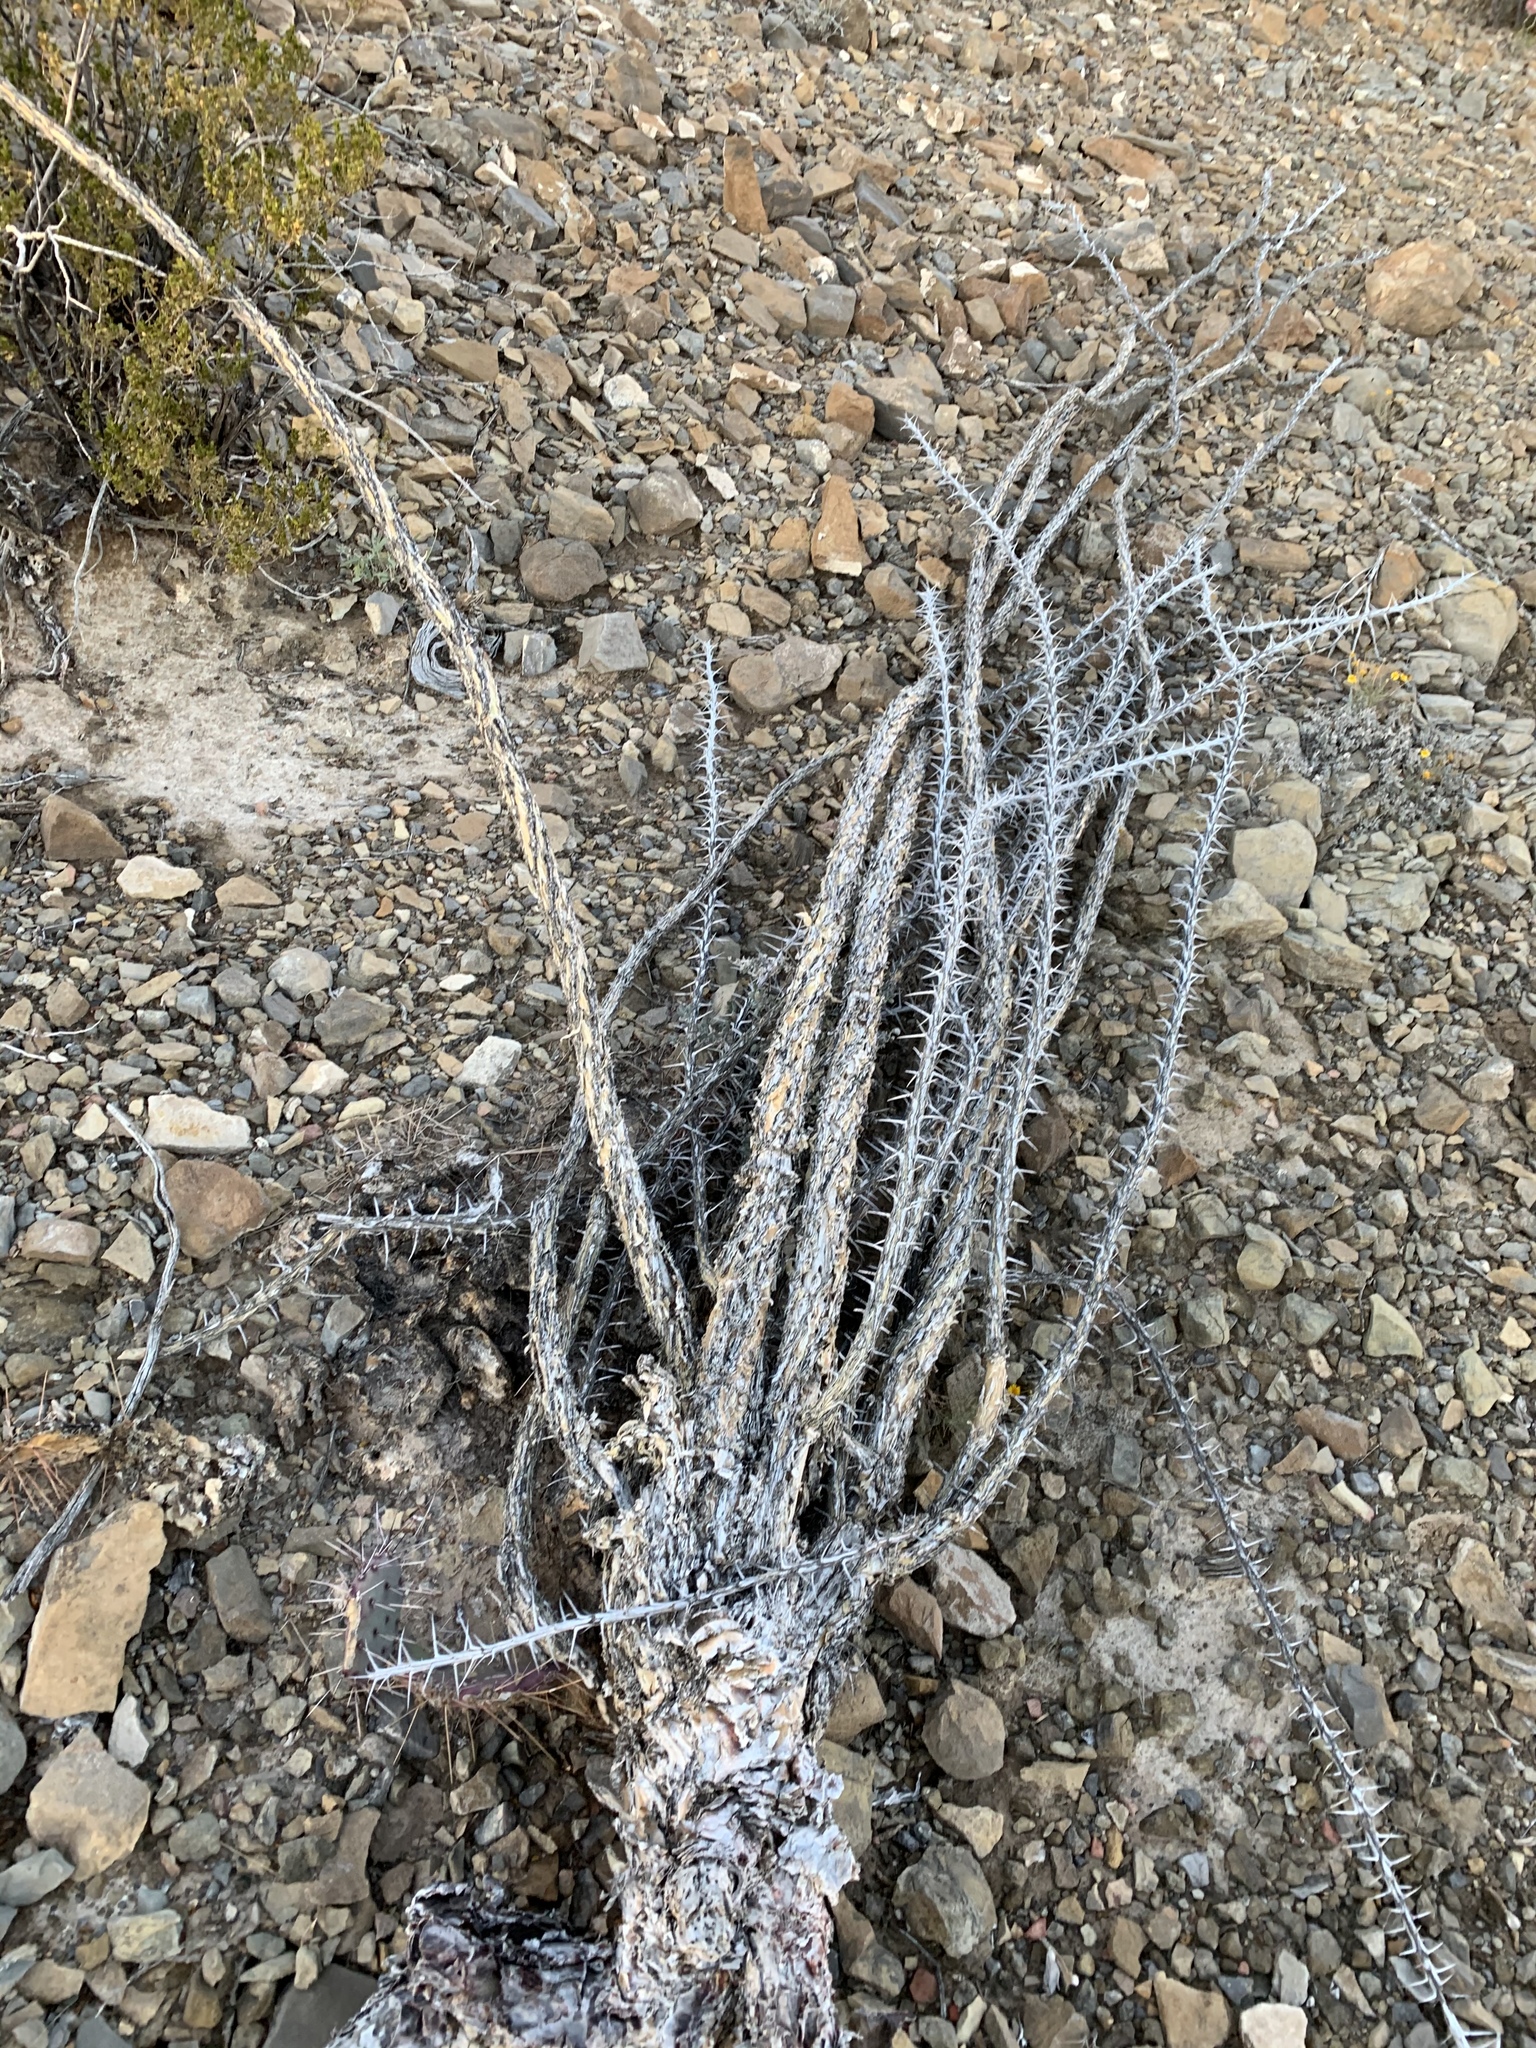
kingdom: Plantae
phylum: Tracheophyta
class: Magnoliopsida
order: Ericales
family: Fouquieriaceae
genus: Fouquieria
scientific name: Fouquieria splendens
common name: Vine-cactus
